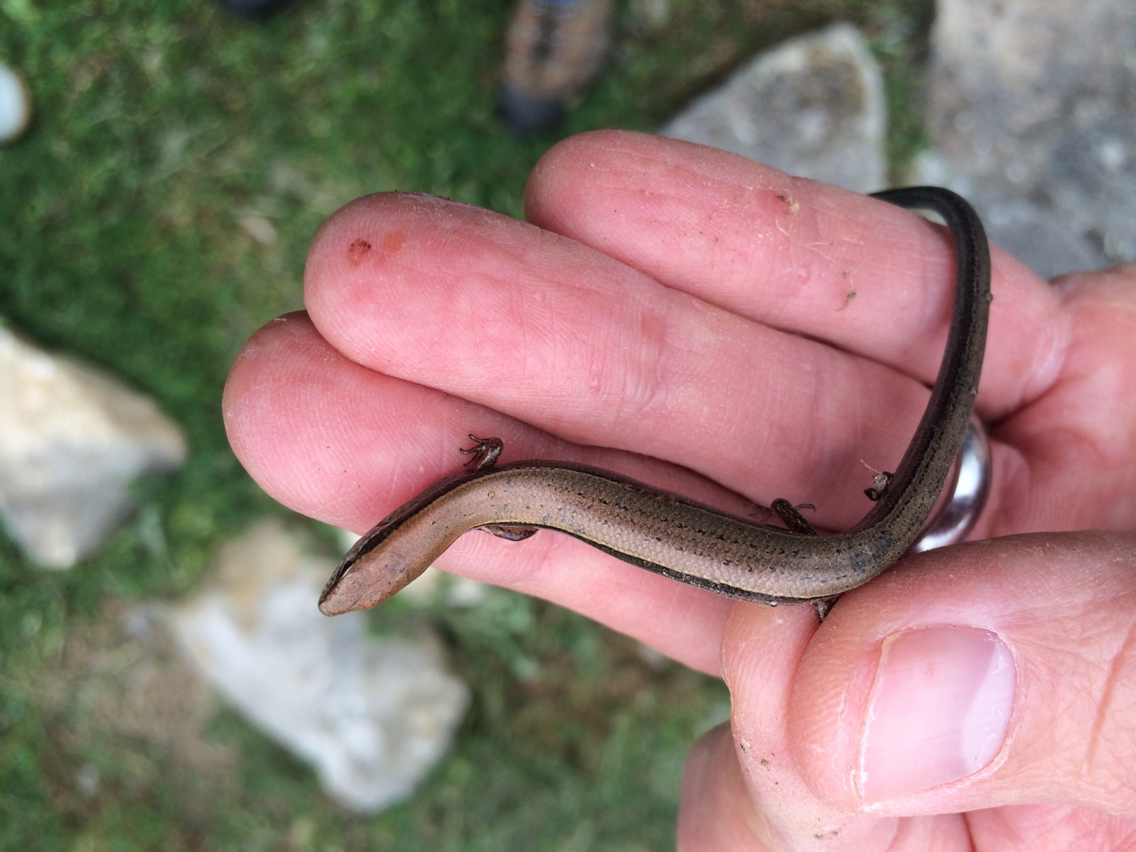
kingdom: Animalia
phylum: Chordata
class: Squamata
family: Scincidae
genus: Scincella
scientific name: Scincella lateralis
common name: Ground skink
